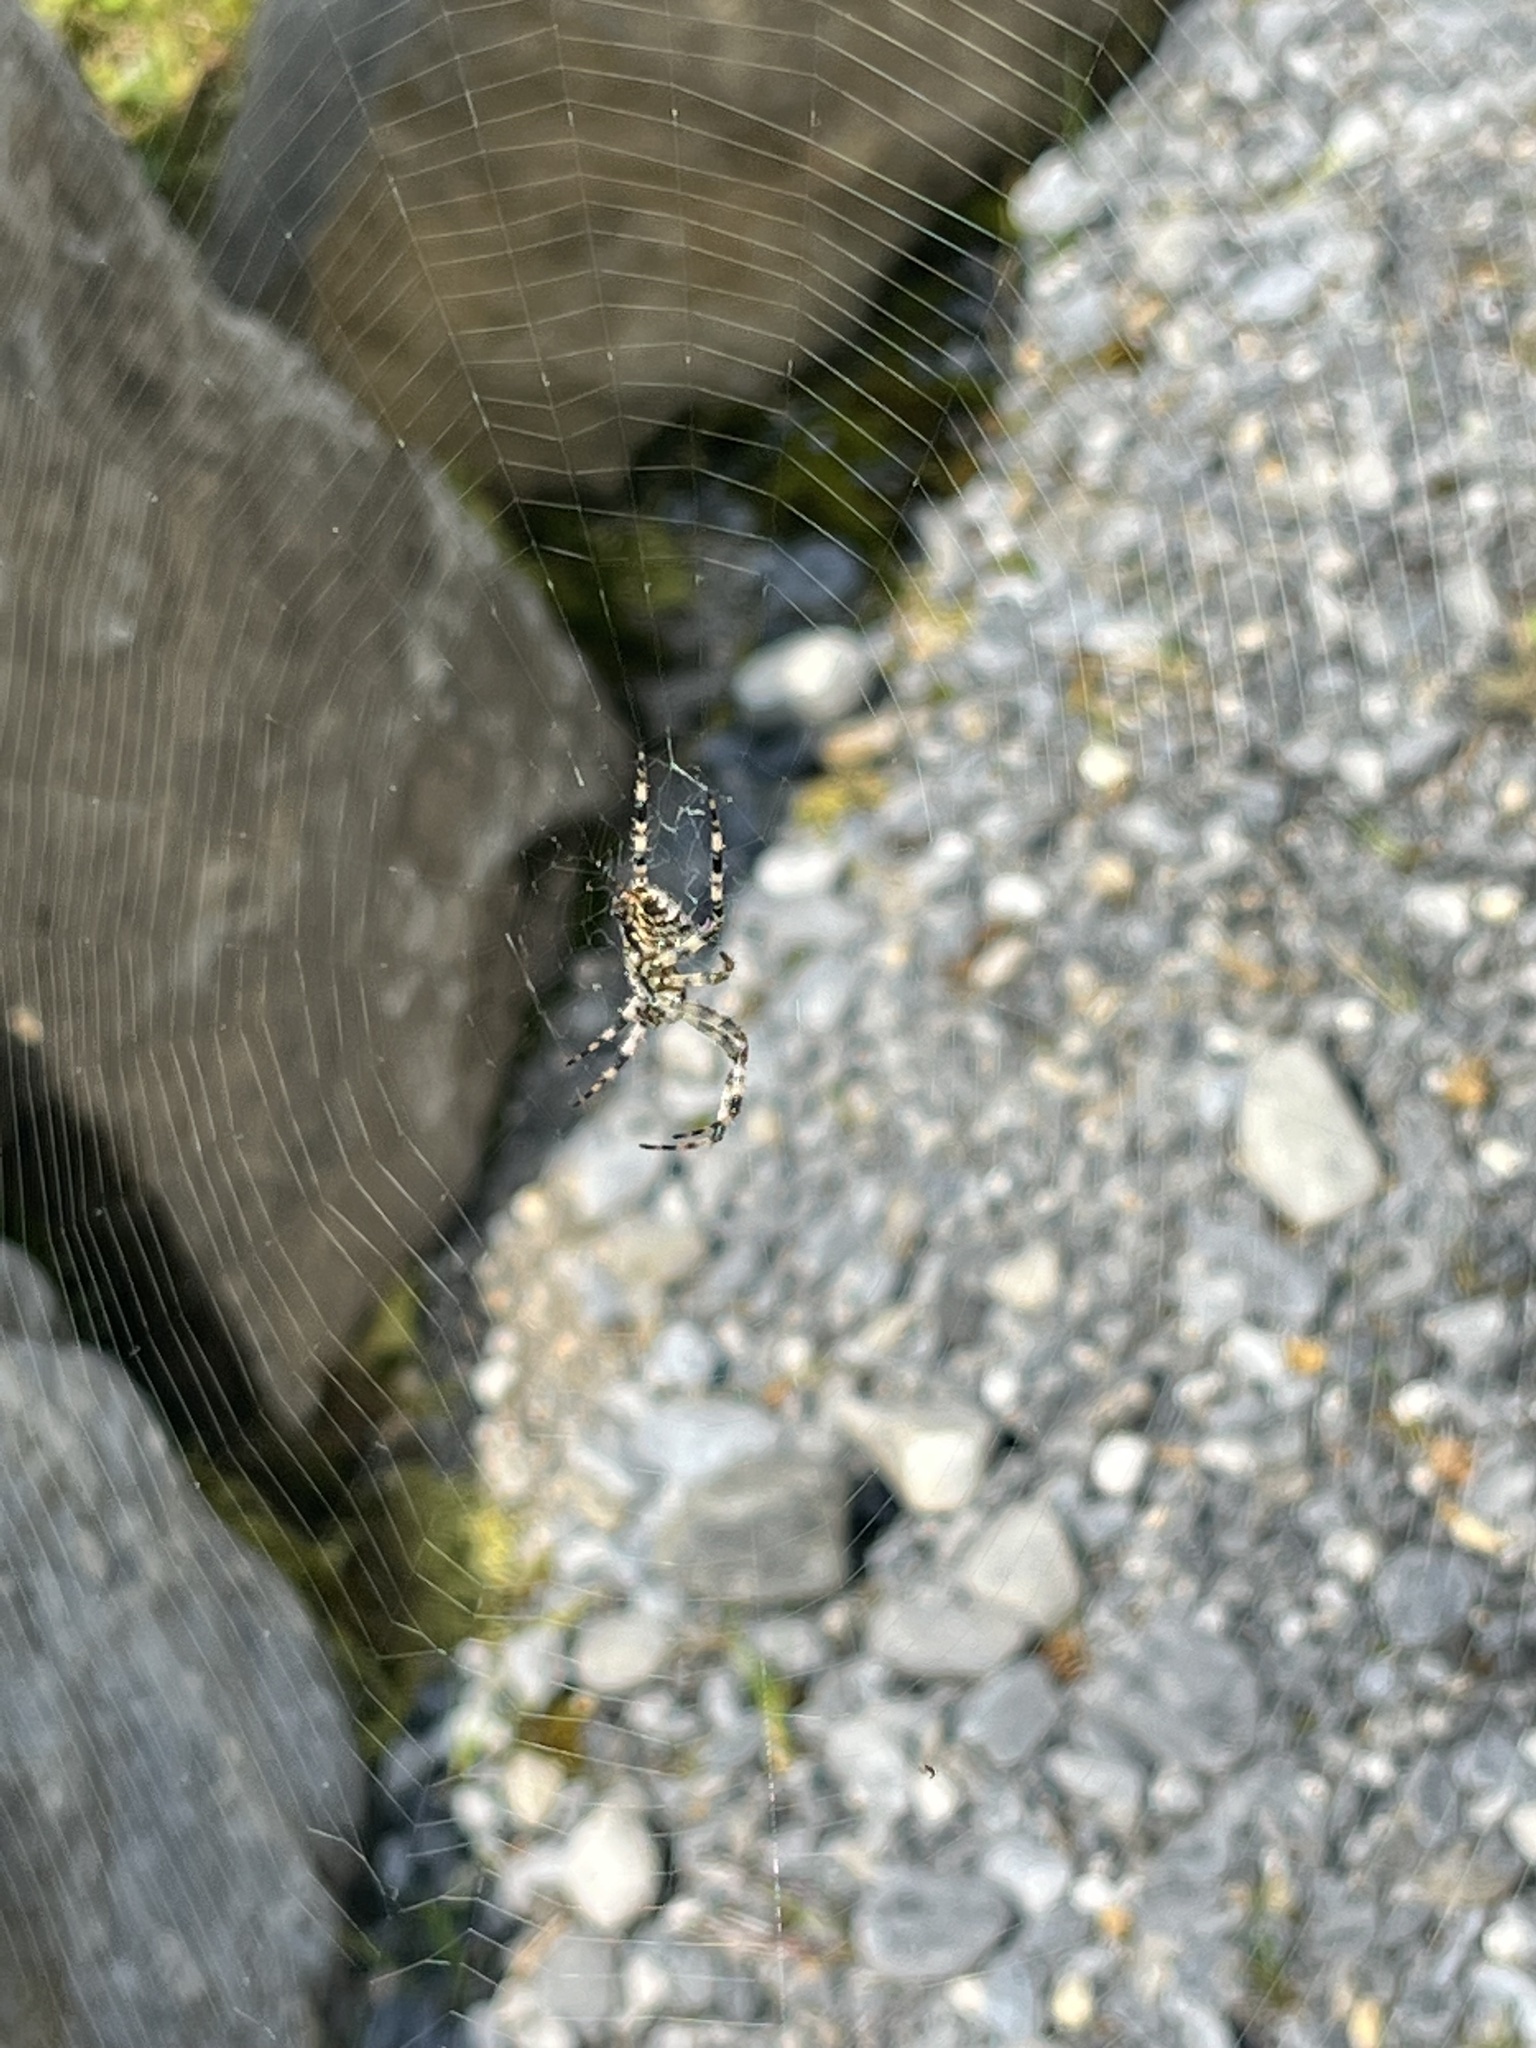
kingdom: Animalia
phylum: Arthropoda
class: Arachnida
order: Araneae
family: Araneidae
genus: Araneus
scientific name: Araneus diadematus
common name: Cross orbweaver
